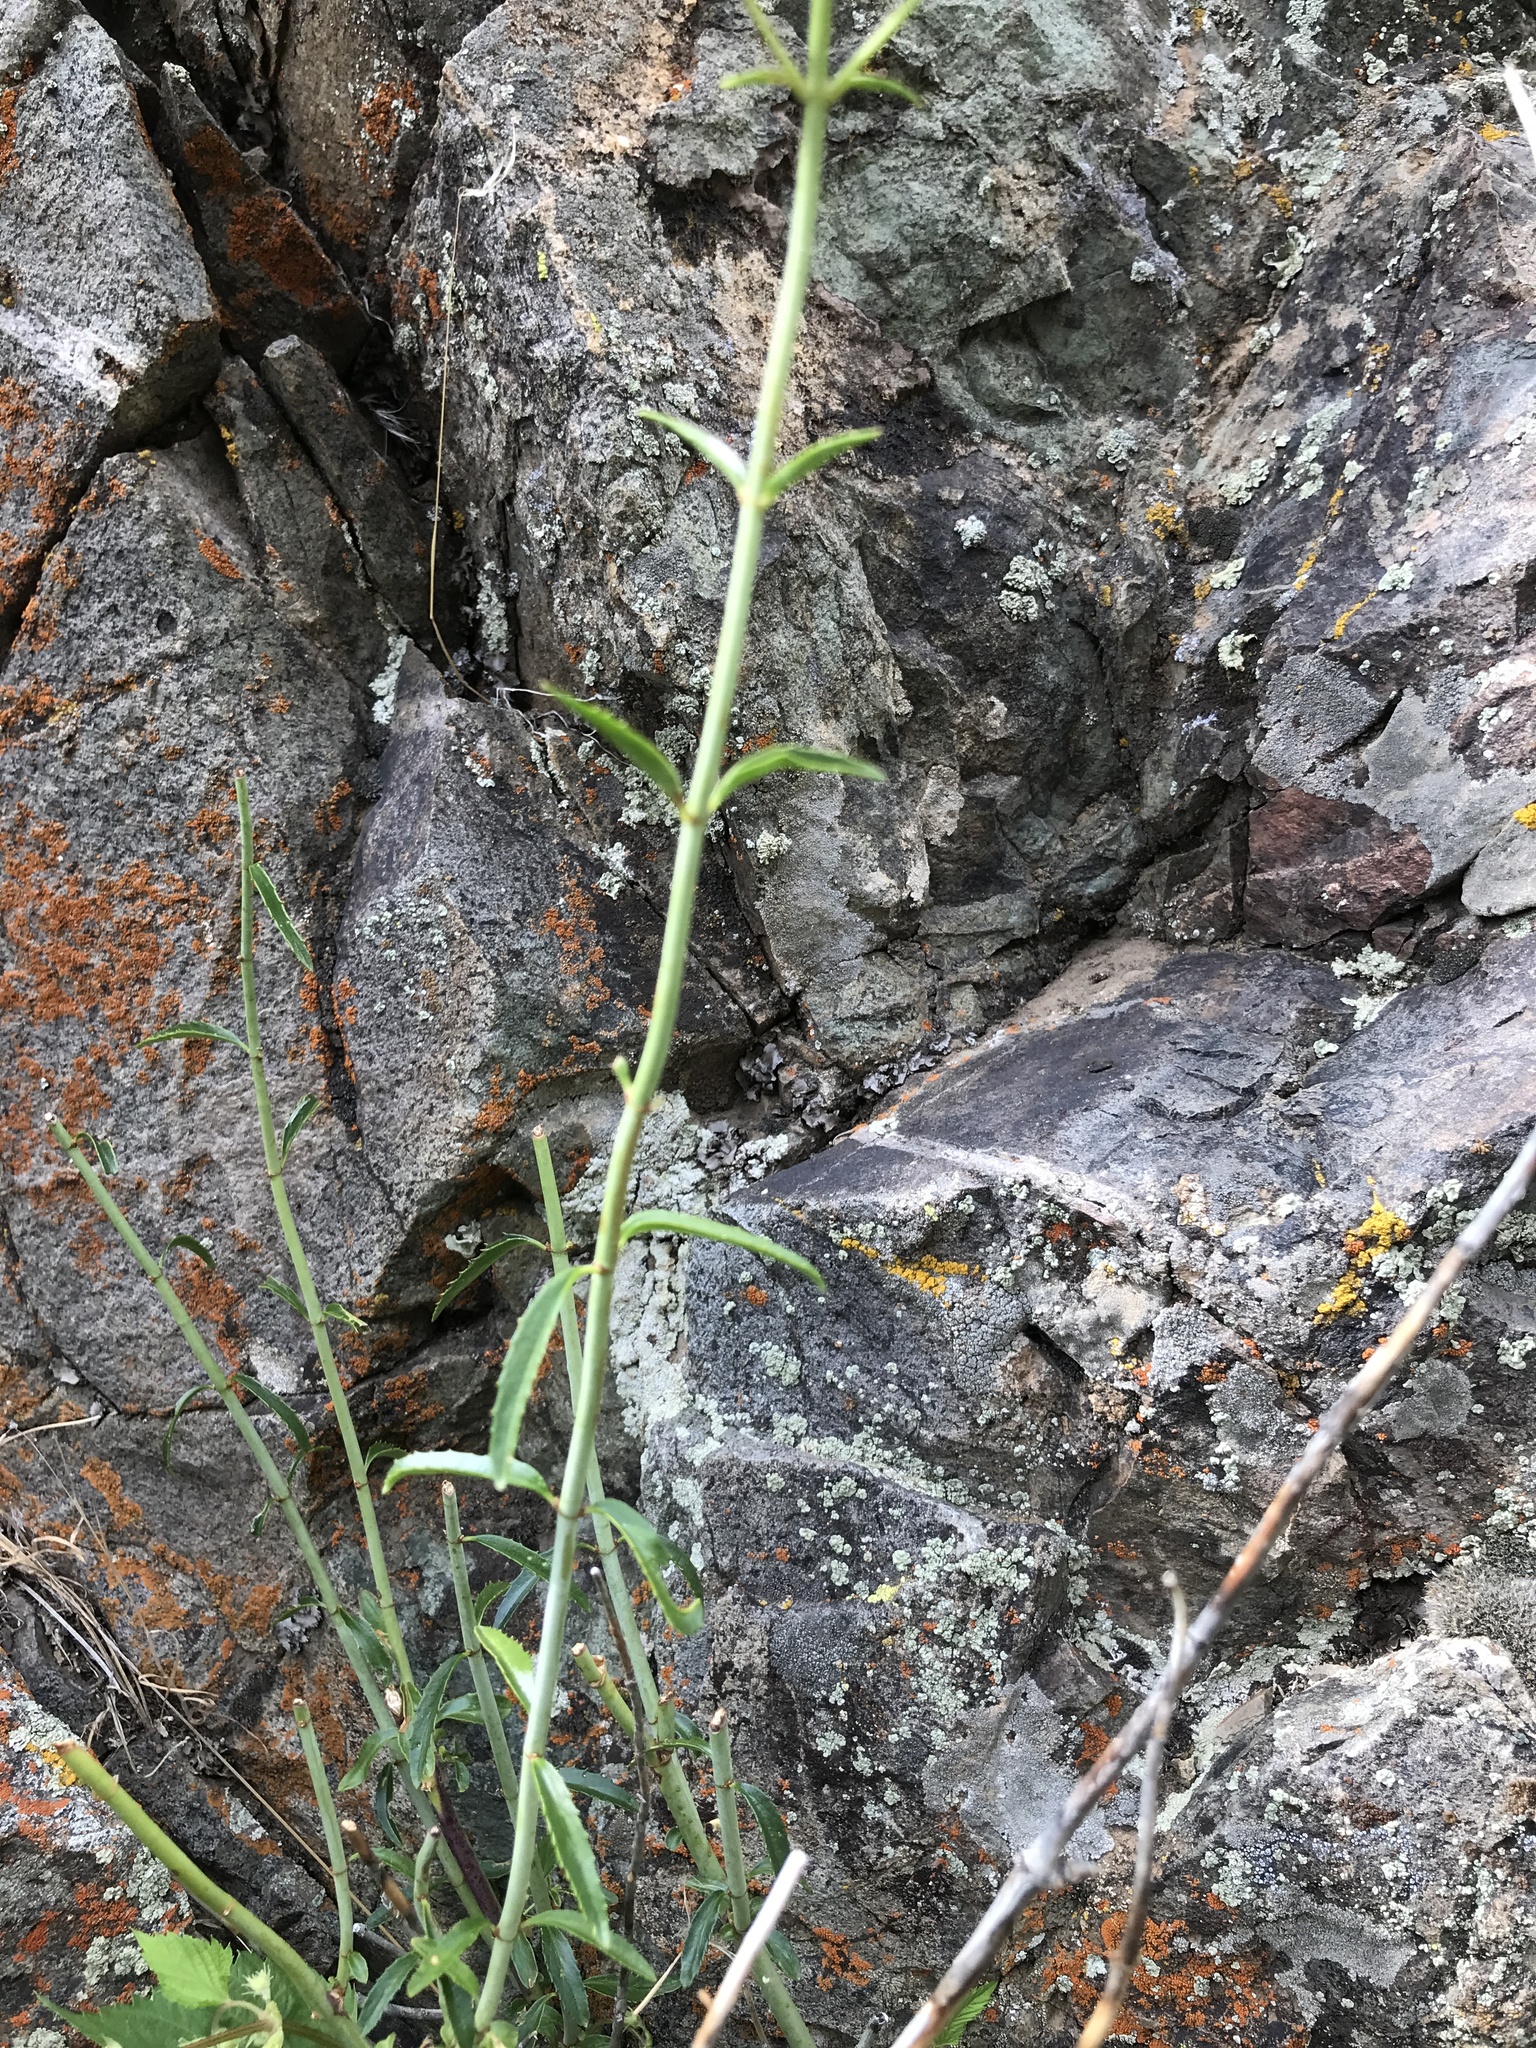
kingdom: Plantae
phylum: Tracheophyta
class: Magnoliopsida
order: Lamiales
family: Plantaginaceae
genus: Keckiella
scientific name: Keckiella breviflora
